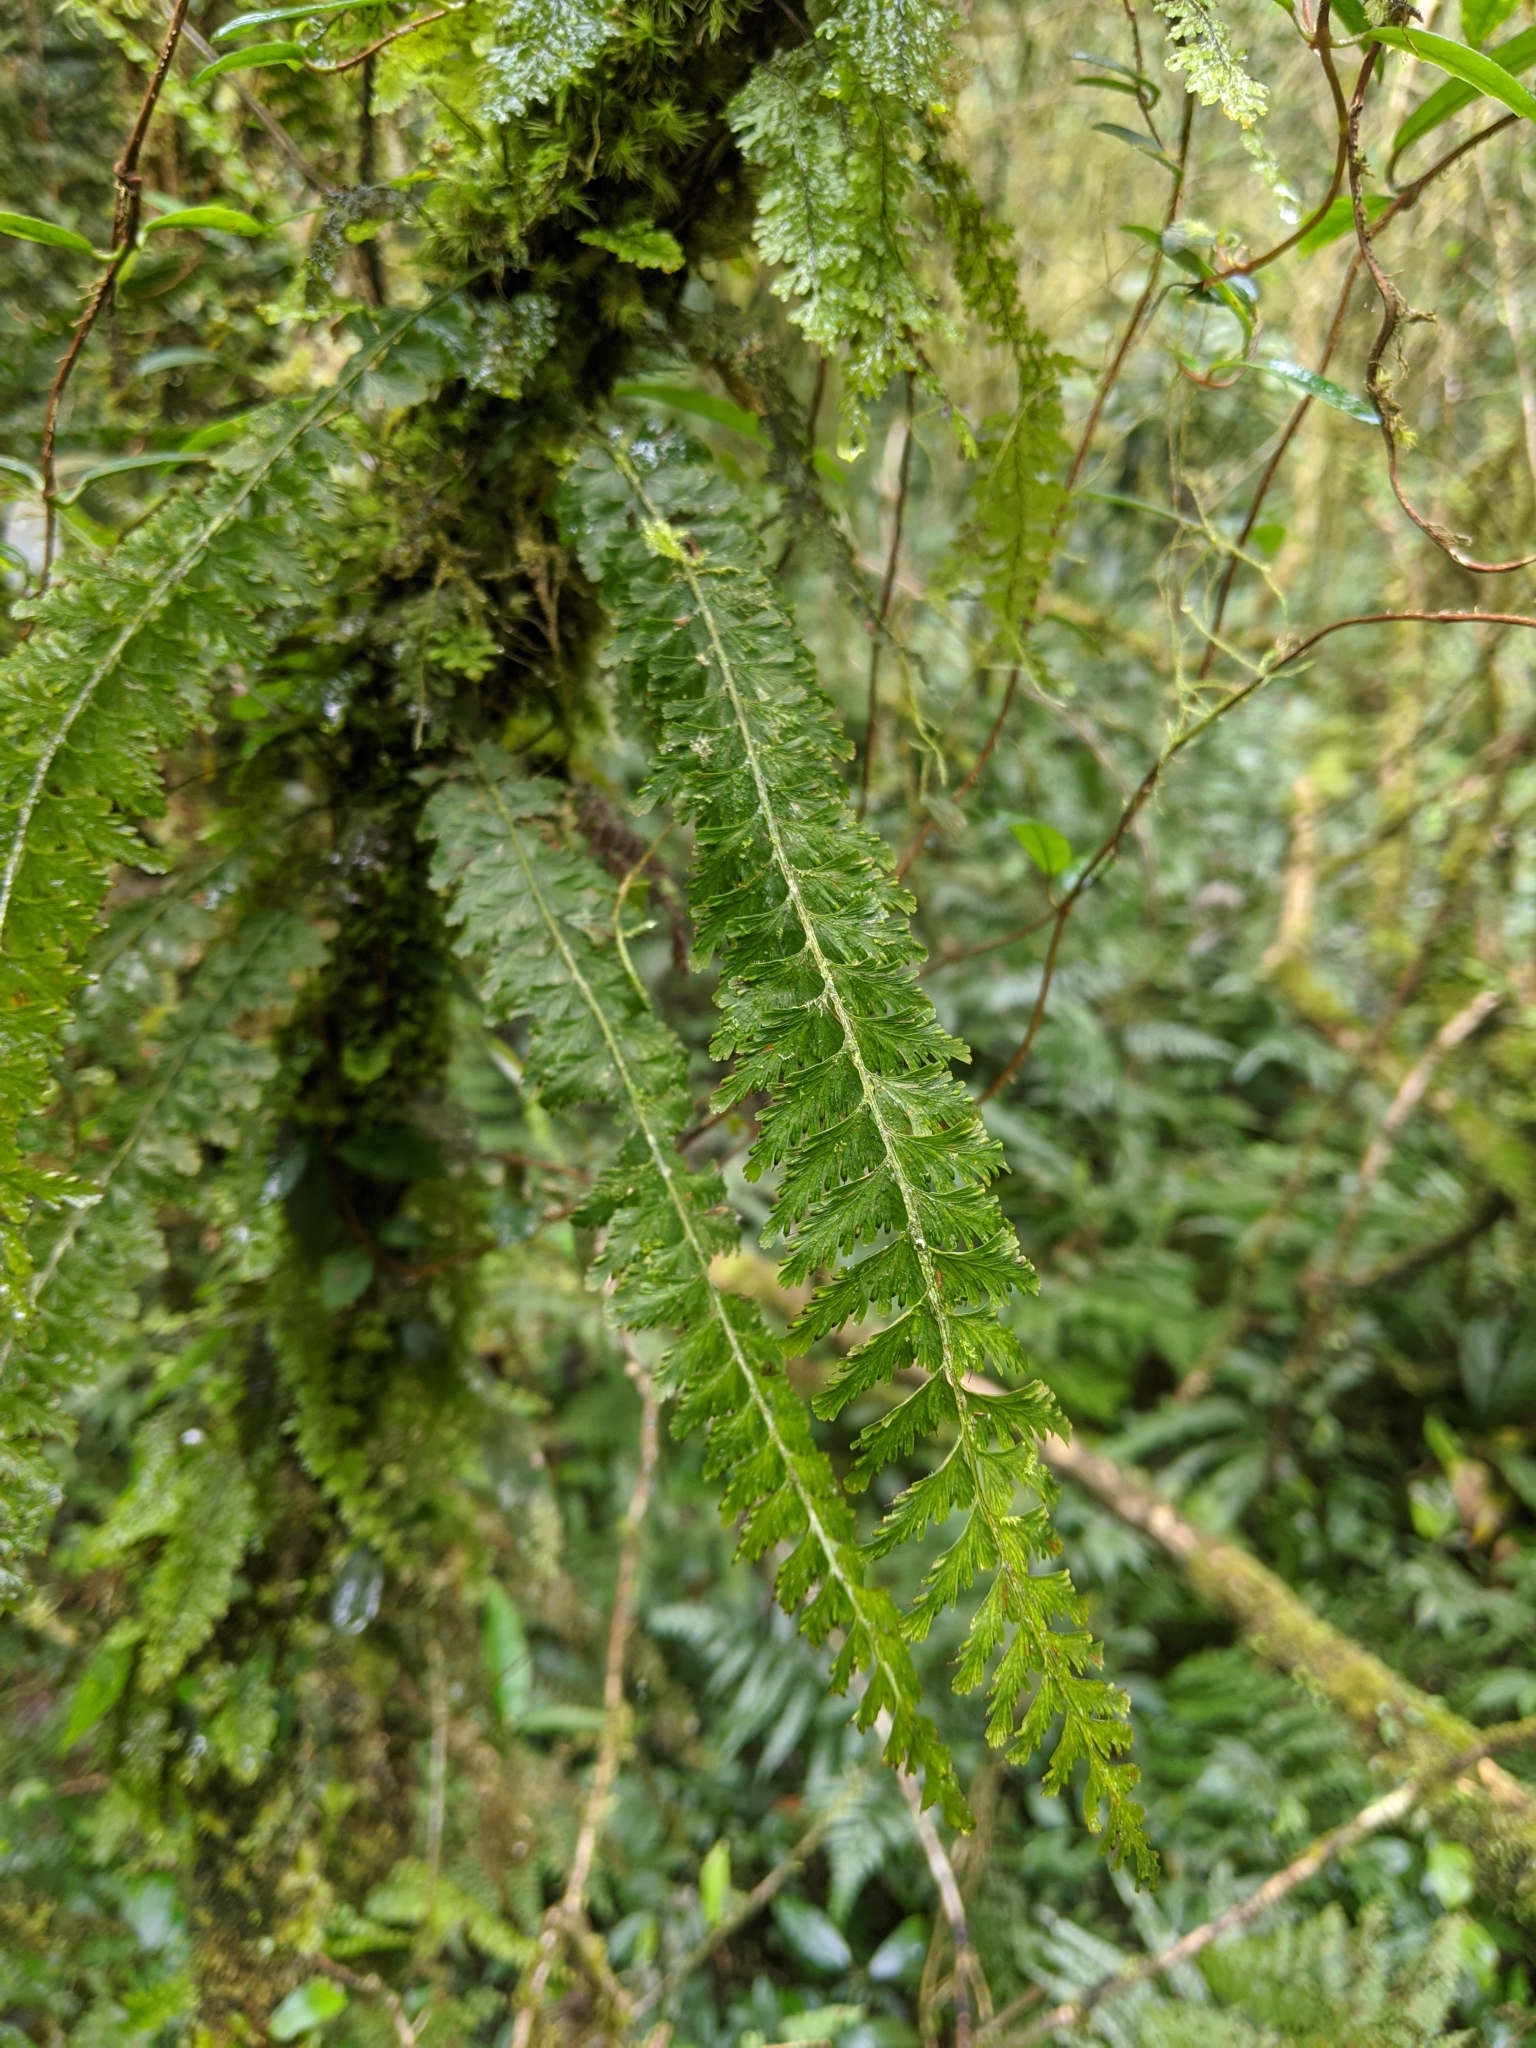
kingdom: Plantae
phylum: Tracheophyta
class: Polypodiopsida
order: Hymenophyllales
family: Hymenophyllaceae
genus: Vandenboschia
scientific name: Vandenboschia auriculata
